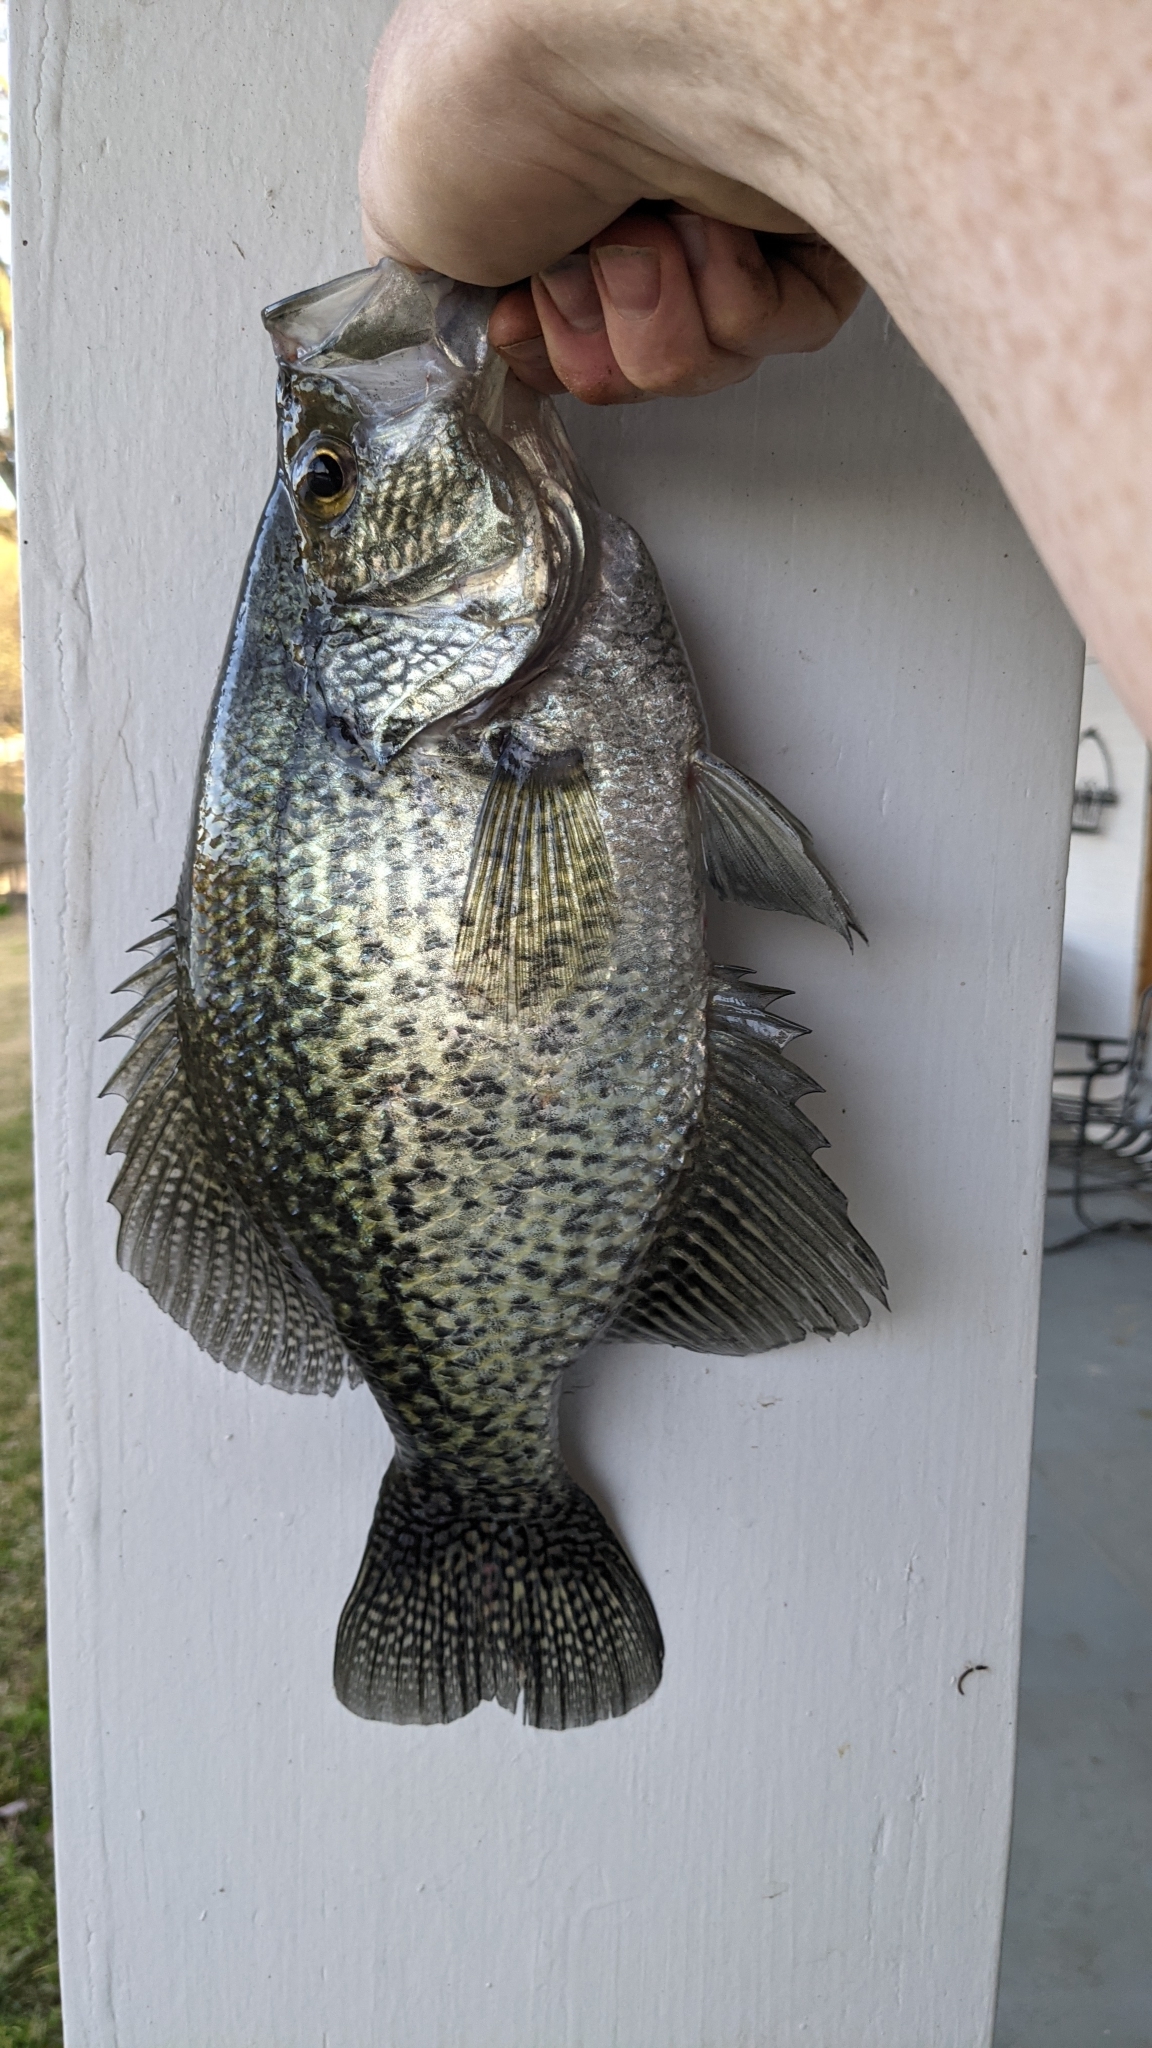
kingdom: Animalia
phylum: Chordata
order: Perciformes
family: Centrarchidae
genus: Pomoxis
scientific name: Pomoxis nigromaculatus
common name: Black crappie
